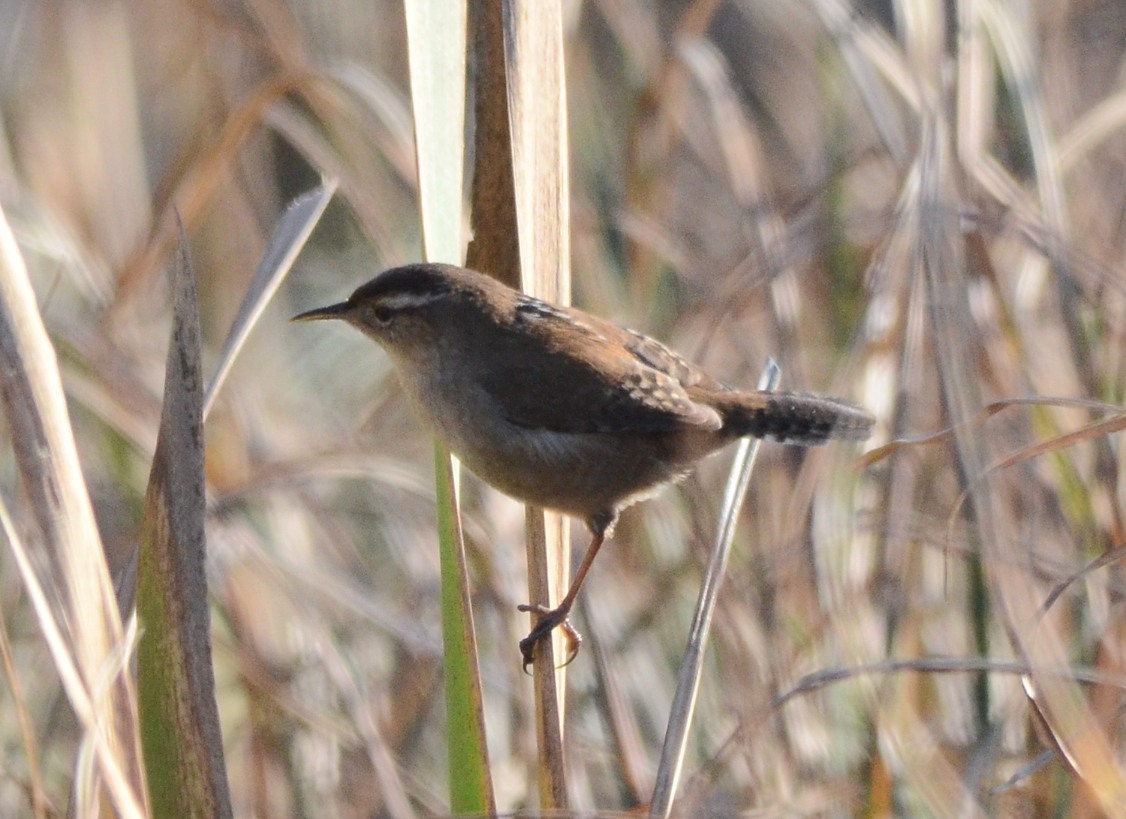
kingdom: Animalia
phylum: Chordata
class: Aves
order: Passeriformes
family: Troglodytidae
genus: Cistothorus
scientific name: Cistothorus palustris
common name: Marsh wren
